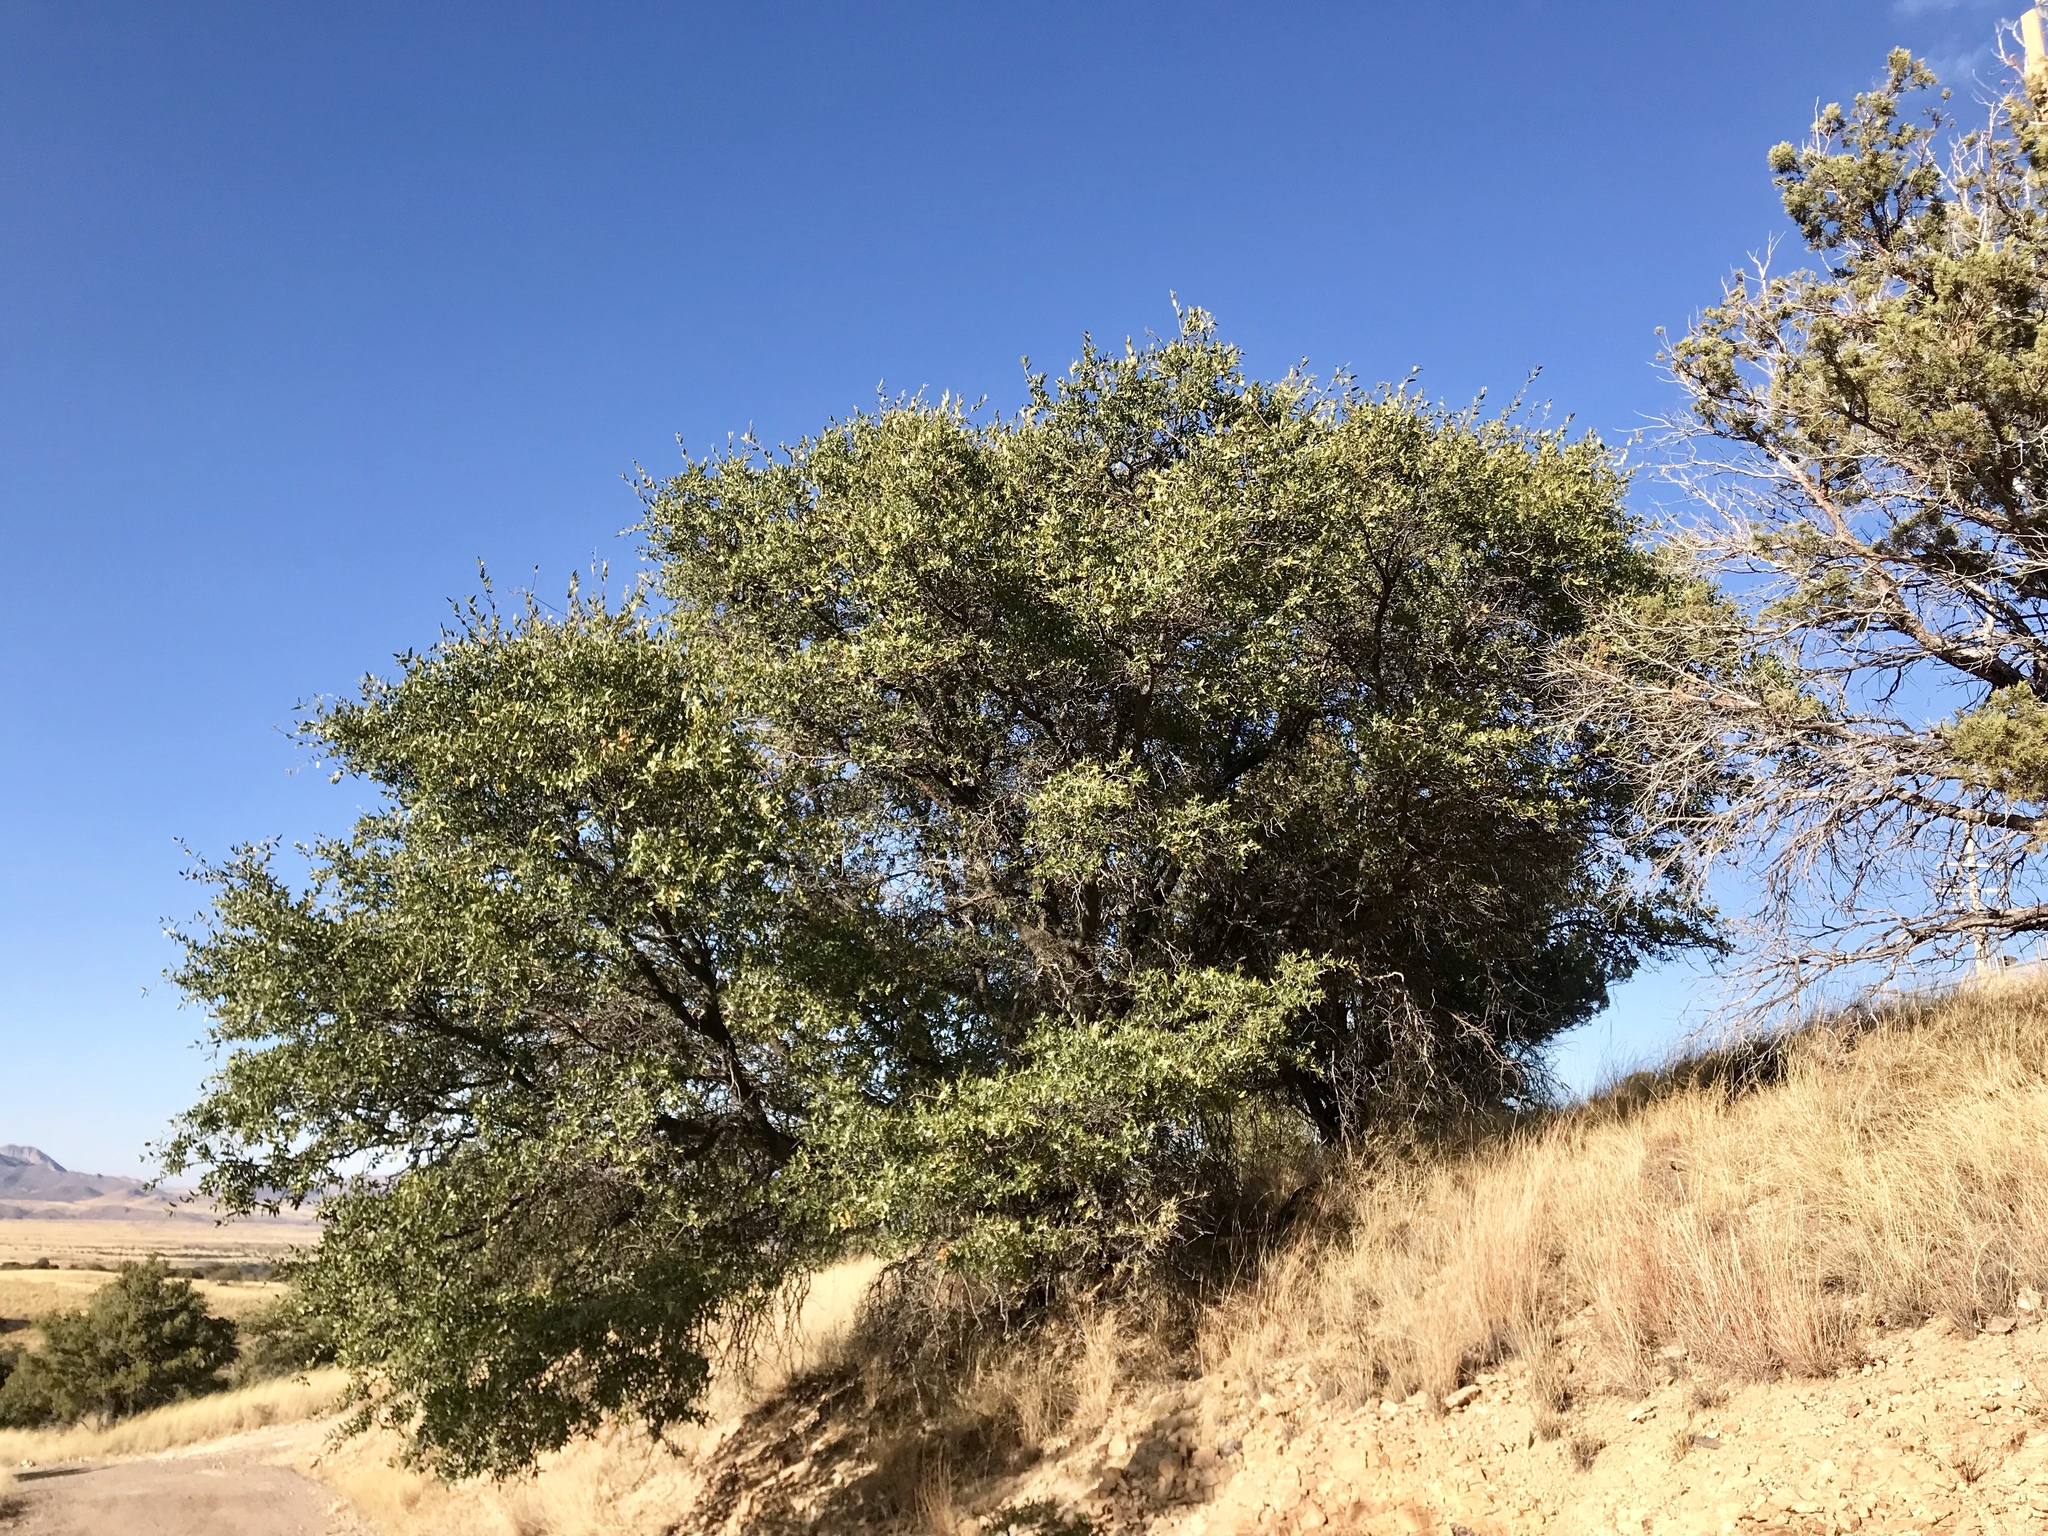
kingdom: Plantae
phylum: Tracheophyta
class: Magnoliopsida
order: Fagales
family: Fagaceae
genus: Quercus
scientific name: Quercus emoryi
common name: Emory oak
